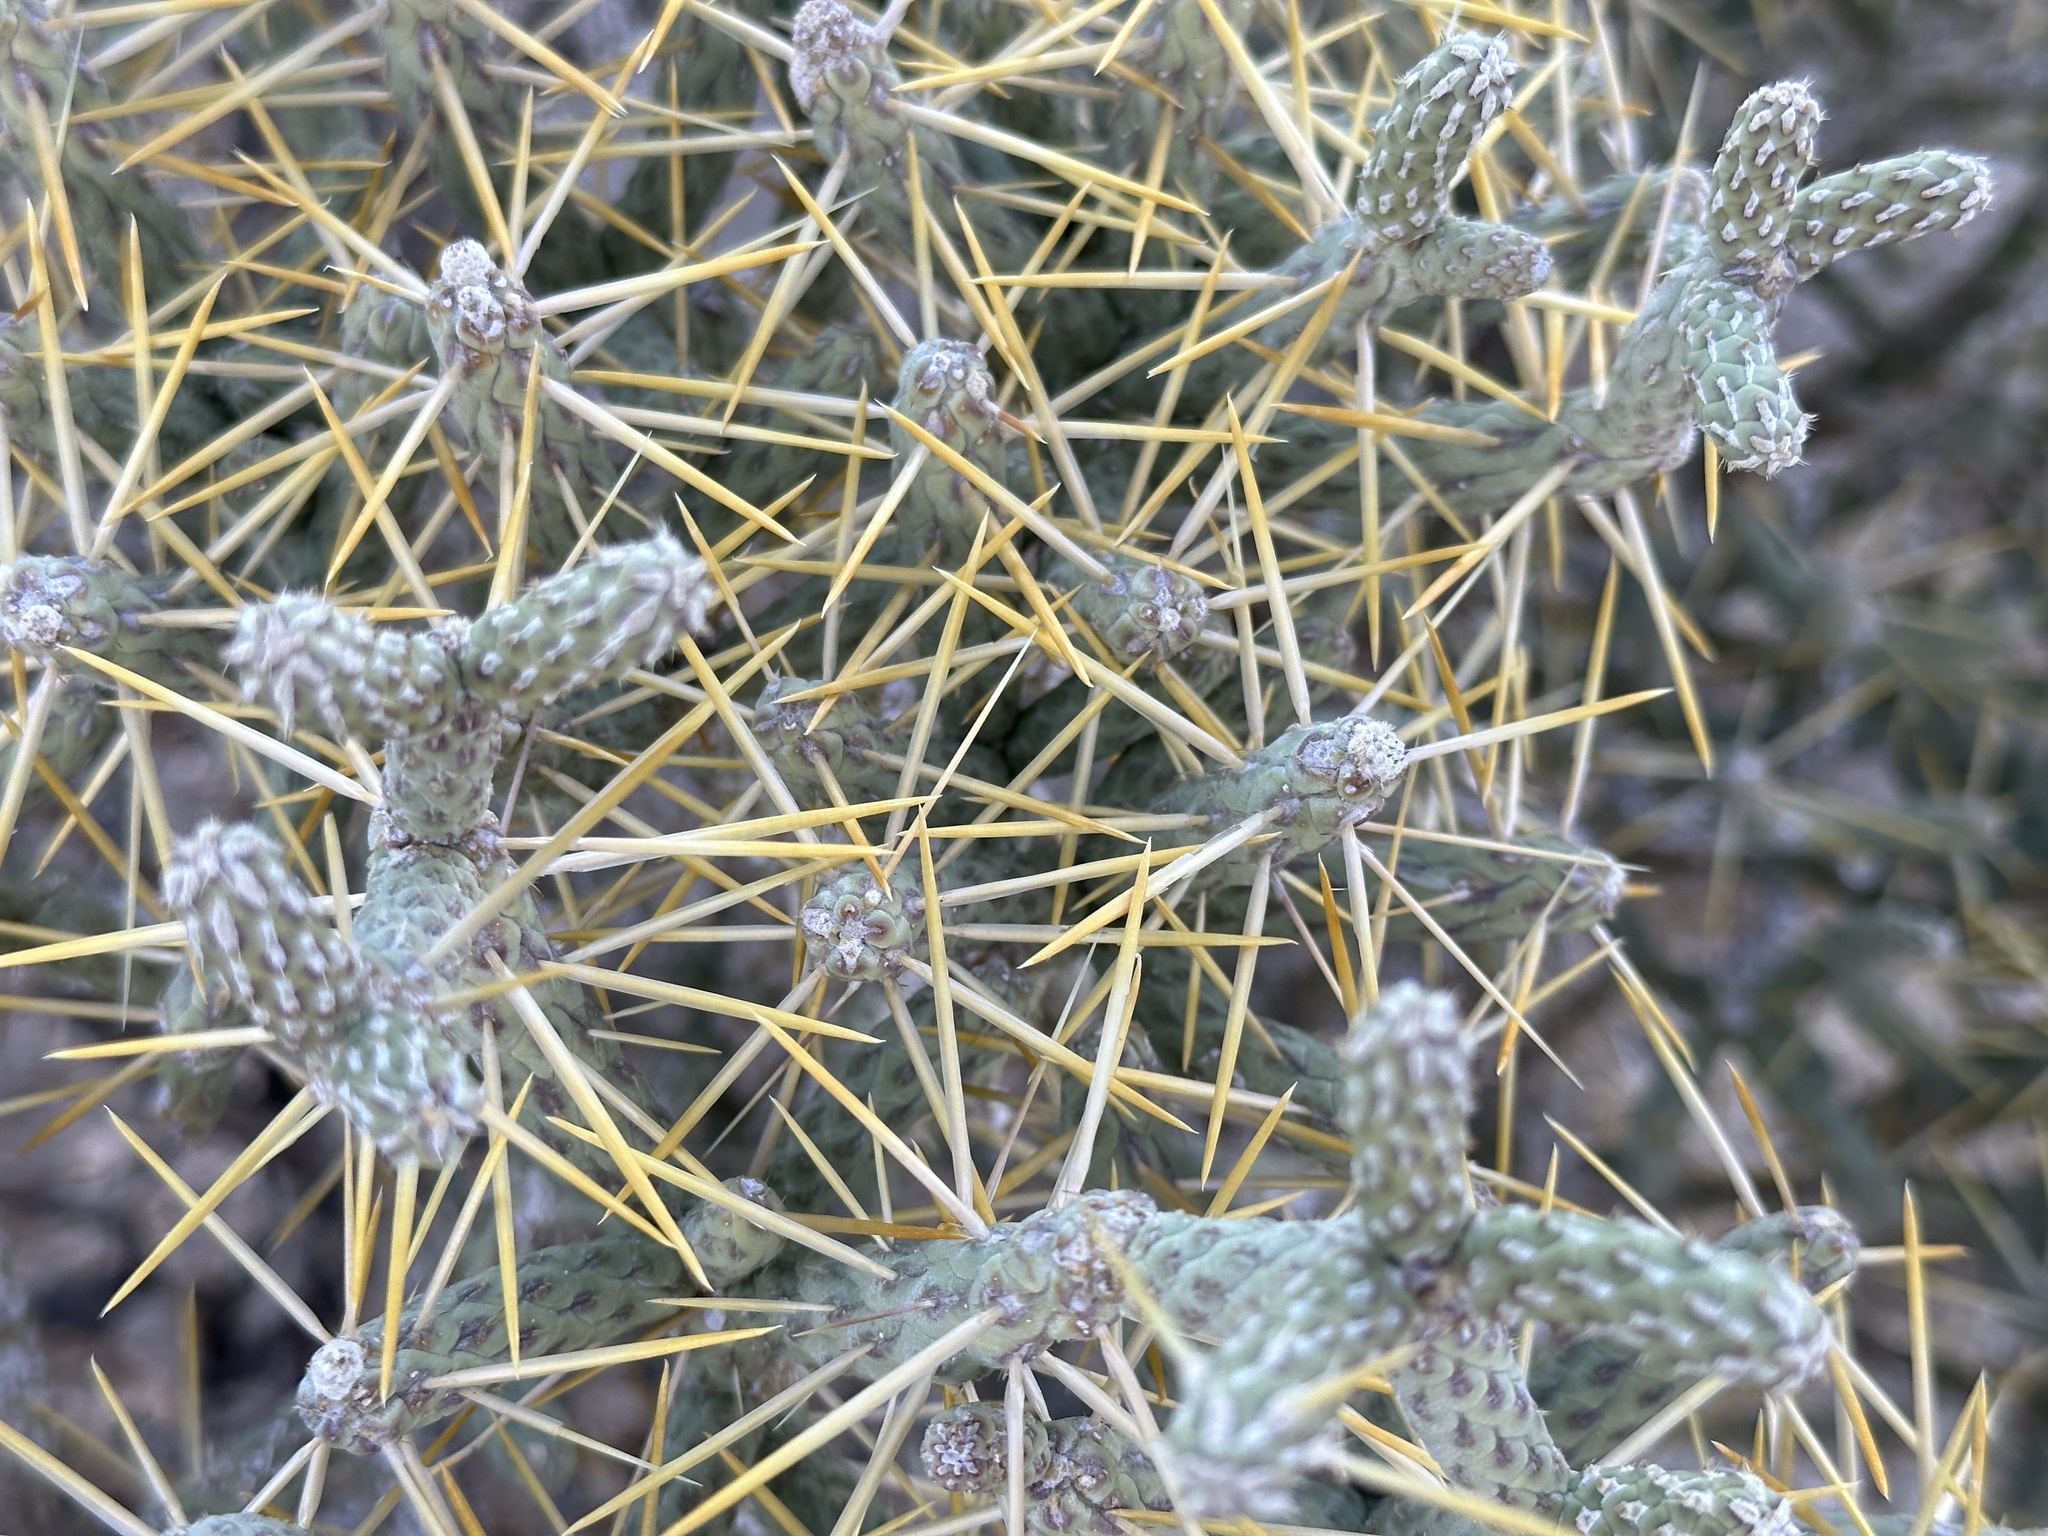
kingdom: Plantae
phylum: Tracheophyta
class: Magnoliopsida
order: Caryophyllales
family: Cactaceae
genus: Cylindropuntia
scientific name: Cylindropuntia ramosissima
